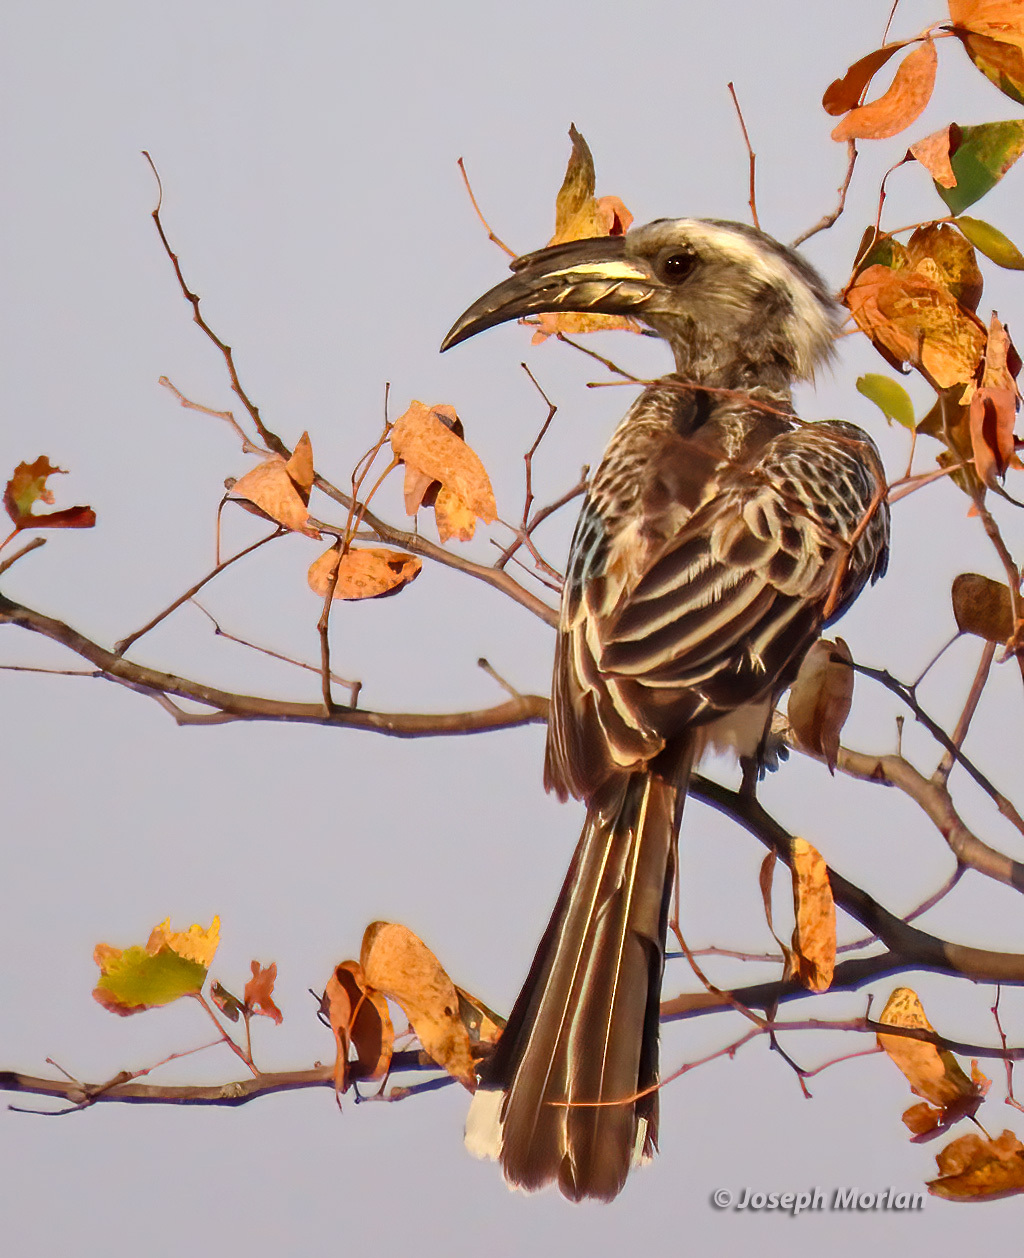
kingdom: Animalia
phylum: Chordata
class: Aves
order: Bucerotiformes
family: Bucerotidae
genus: Lophoceros
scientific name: Lophoceros nasutus
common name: African grey hornbill
